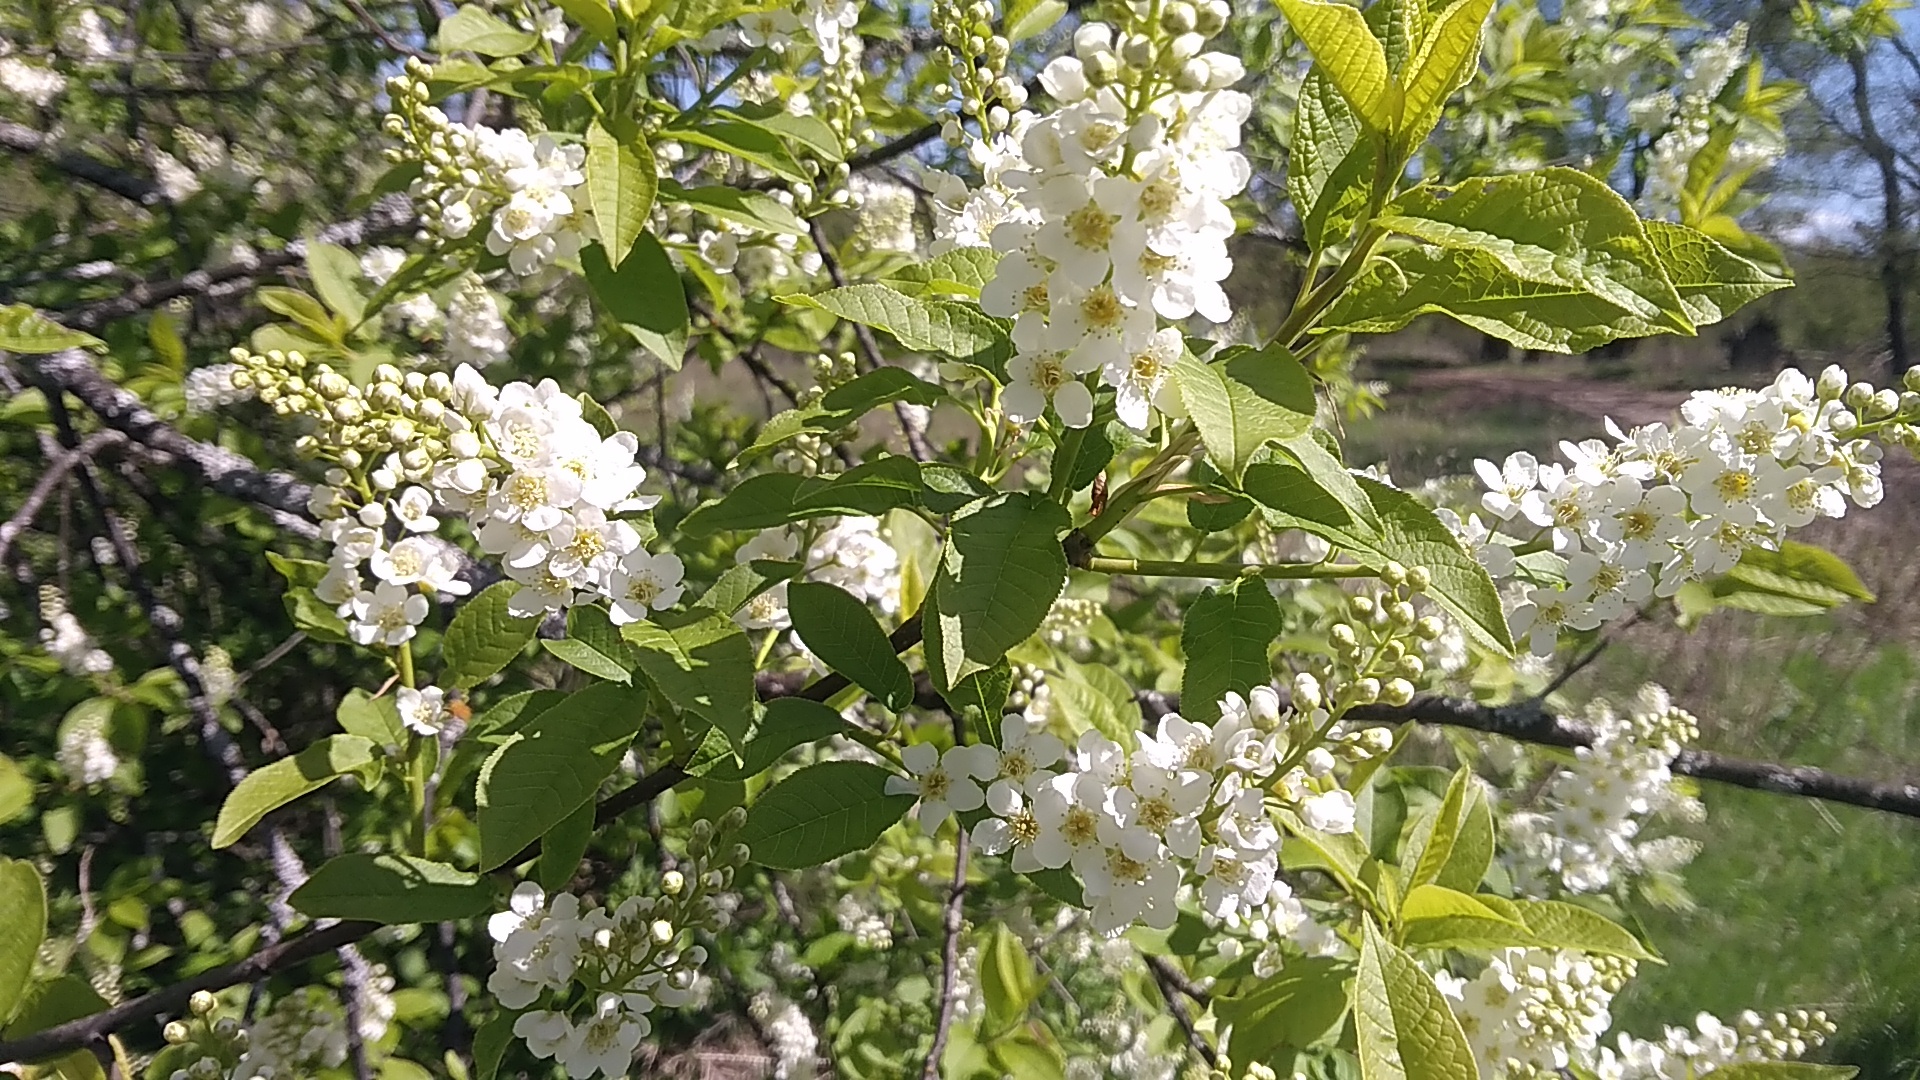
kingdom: Plantae
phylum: Tracheophyta
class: Magnoliopsida
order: Rosales
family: Rosaceae
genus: Prunus
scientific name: Prunus padus
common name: Bird cherry
